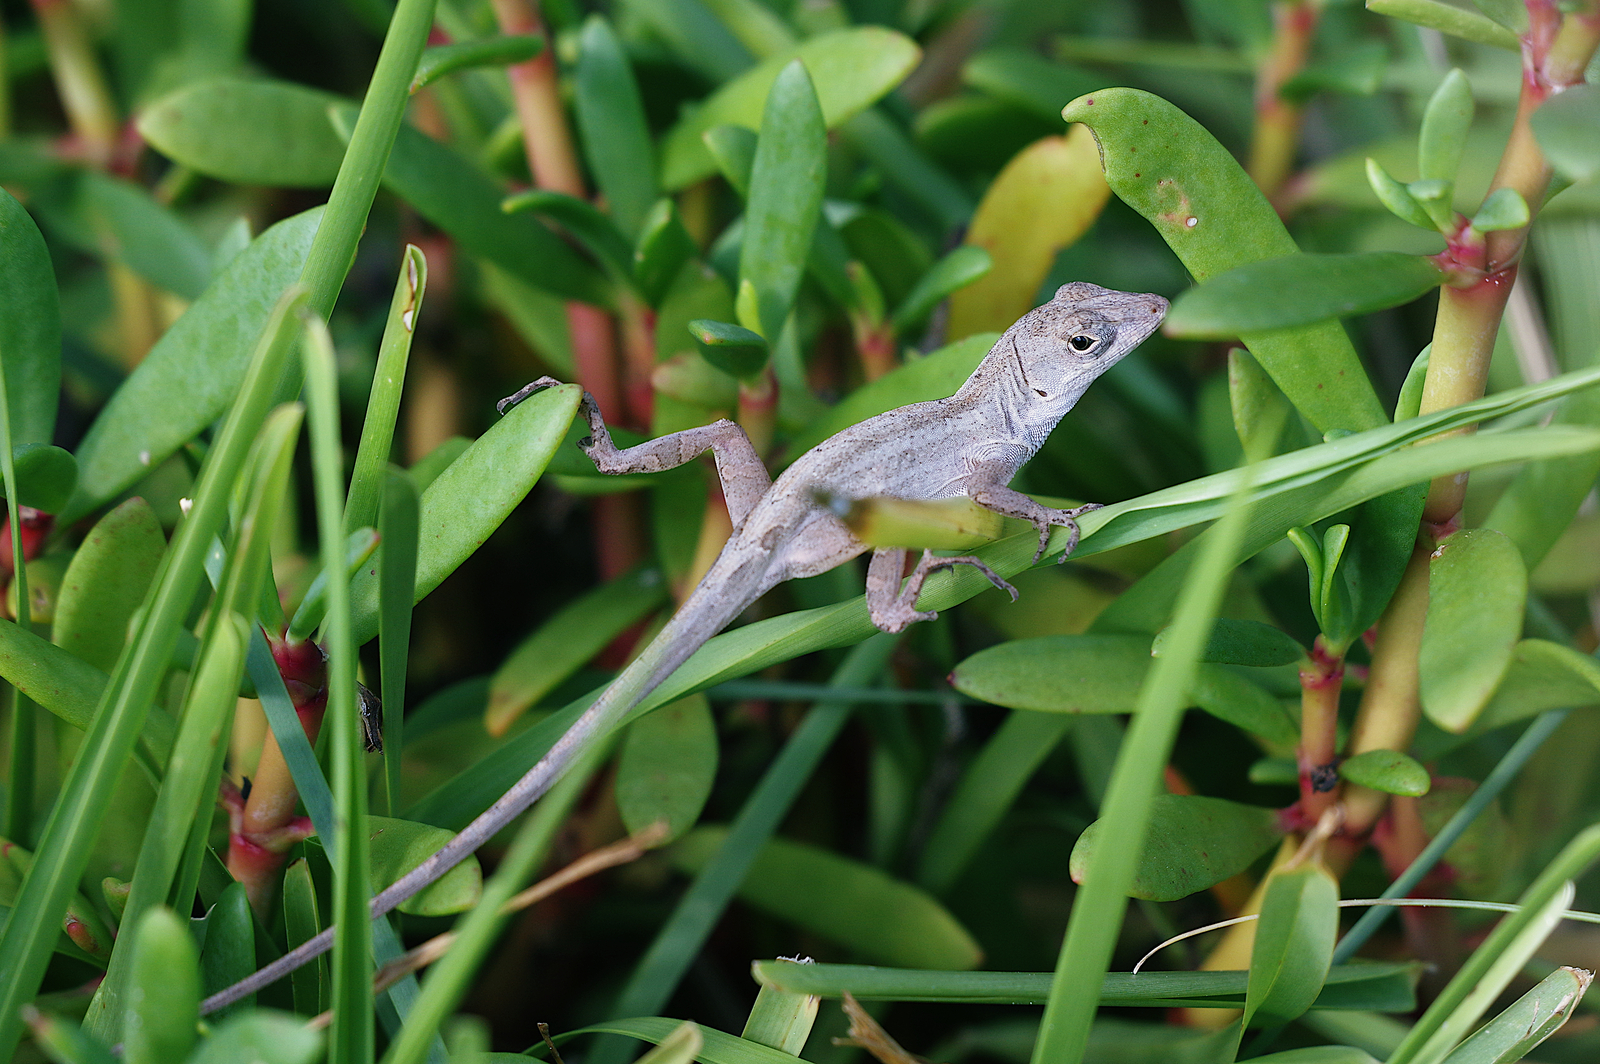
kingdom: Animalia
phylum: Chordata
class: Squamata
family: Dactyloidae
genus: Anolis
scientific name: Anolis sagrei
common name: Brown anole
